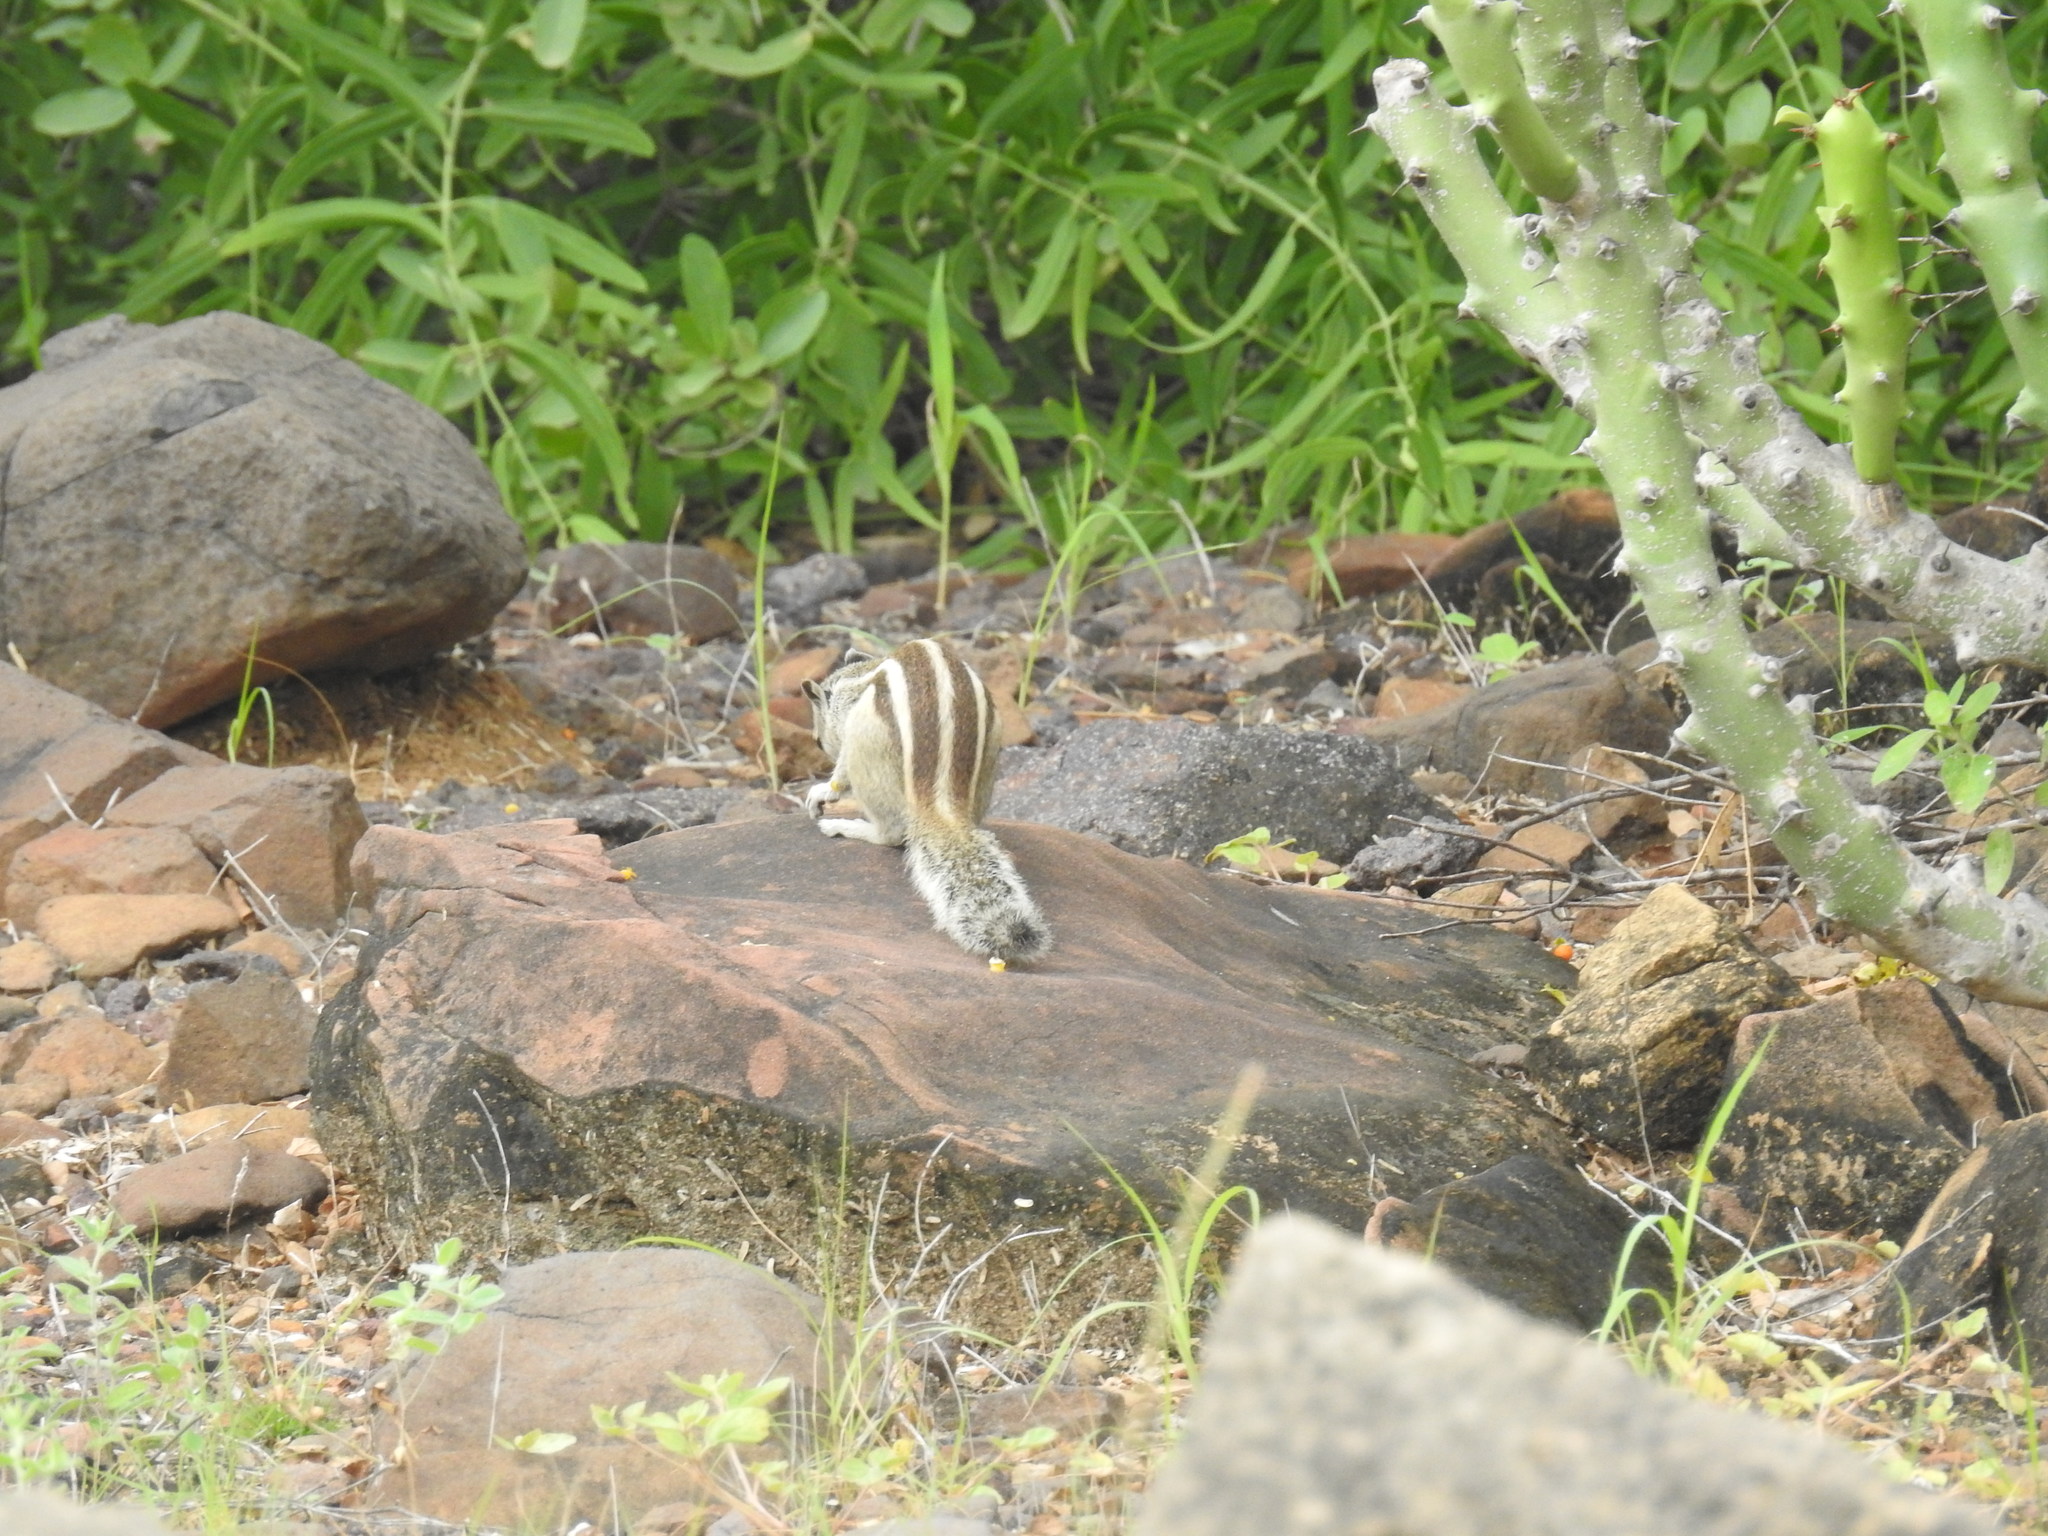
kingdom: Animalia
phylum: Chordata
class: Mammalia
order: Rodentia
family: Sciuridae
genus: Funambulus
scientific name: Funambulus pennantii
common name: Northern palm squirrel
